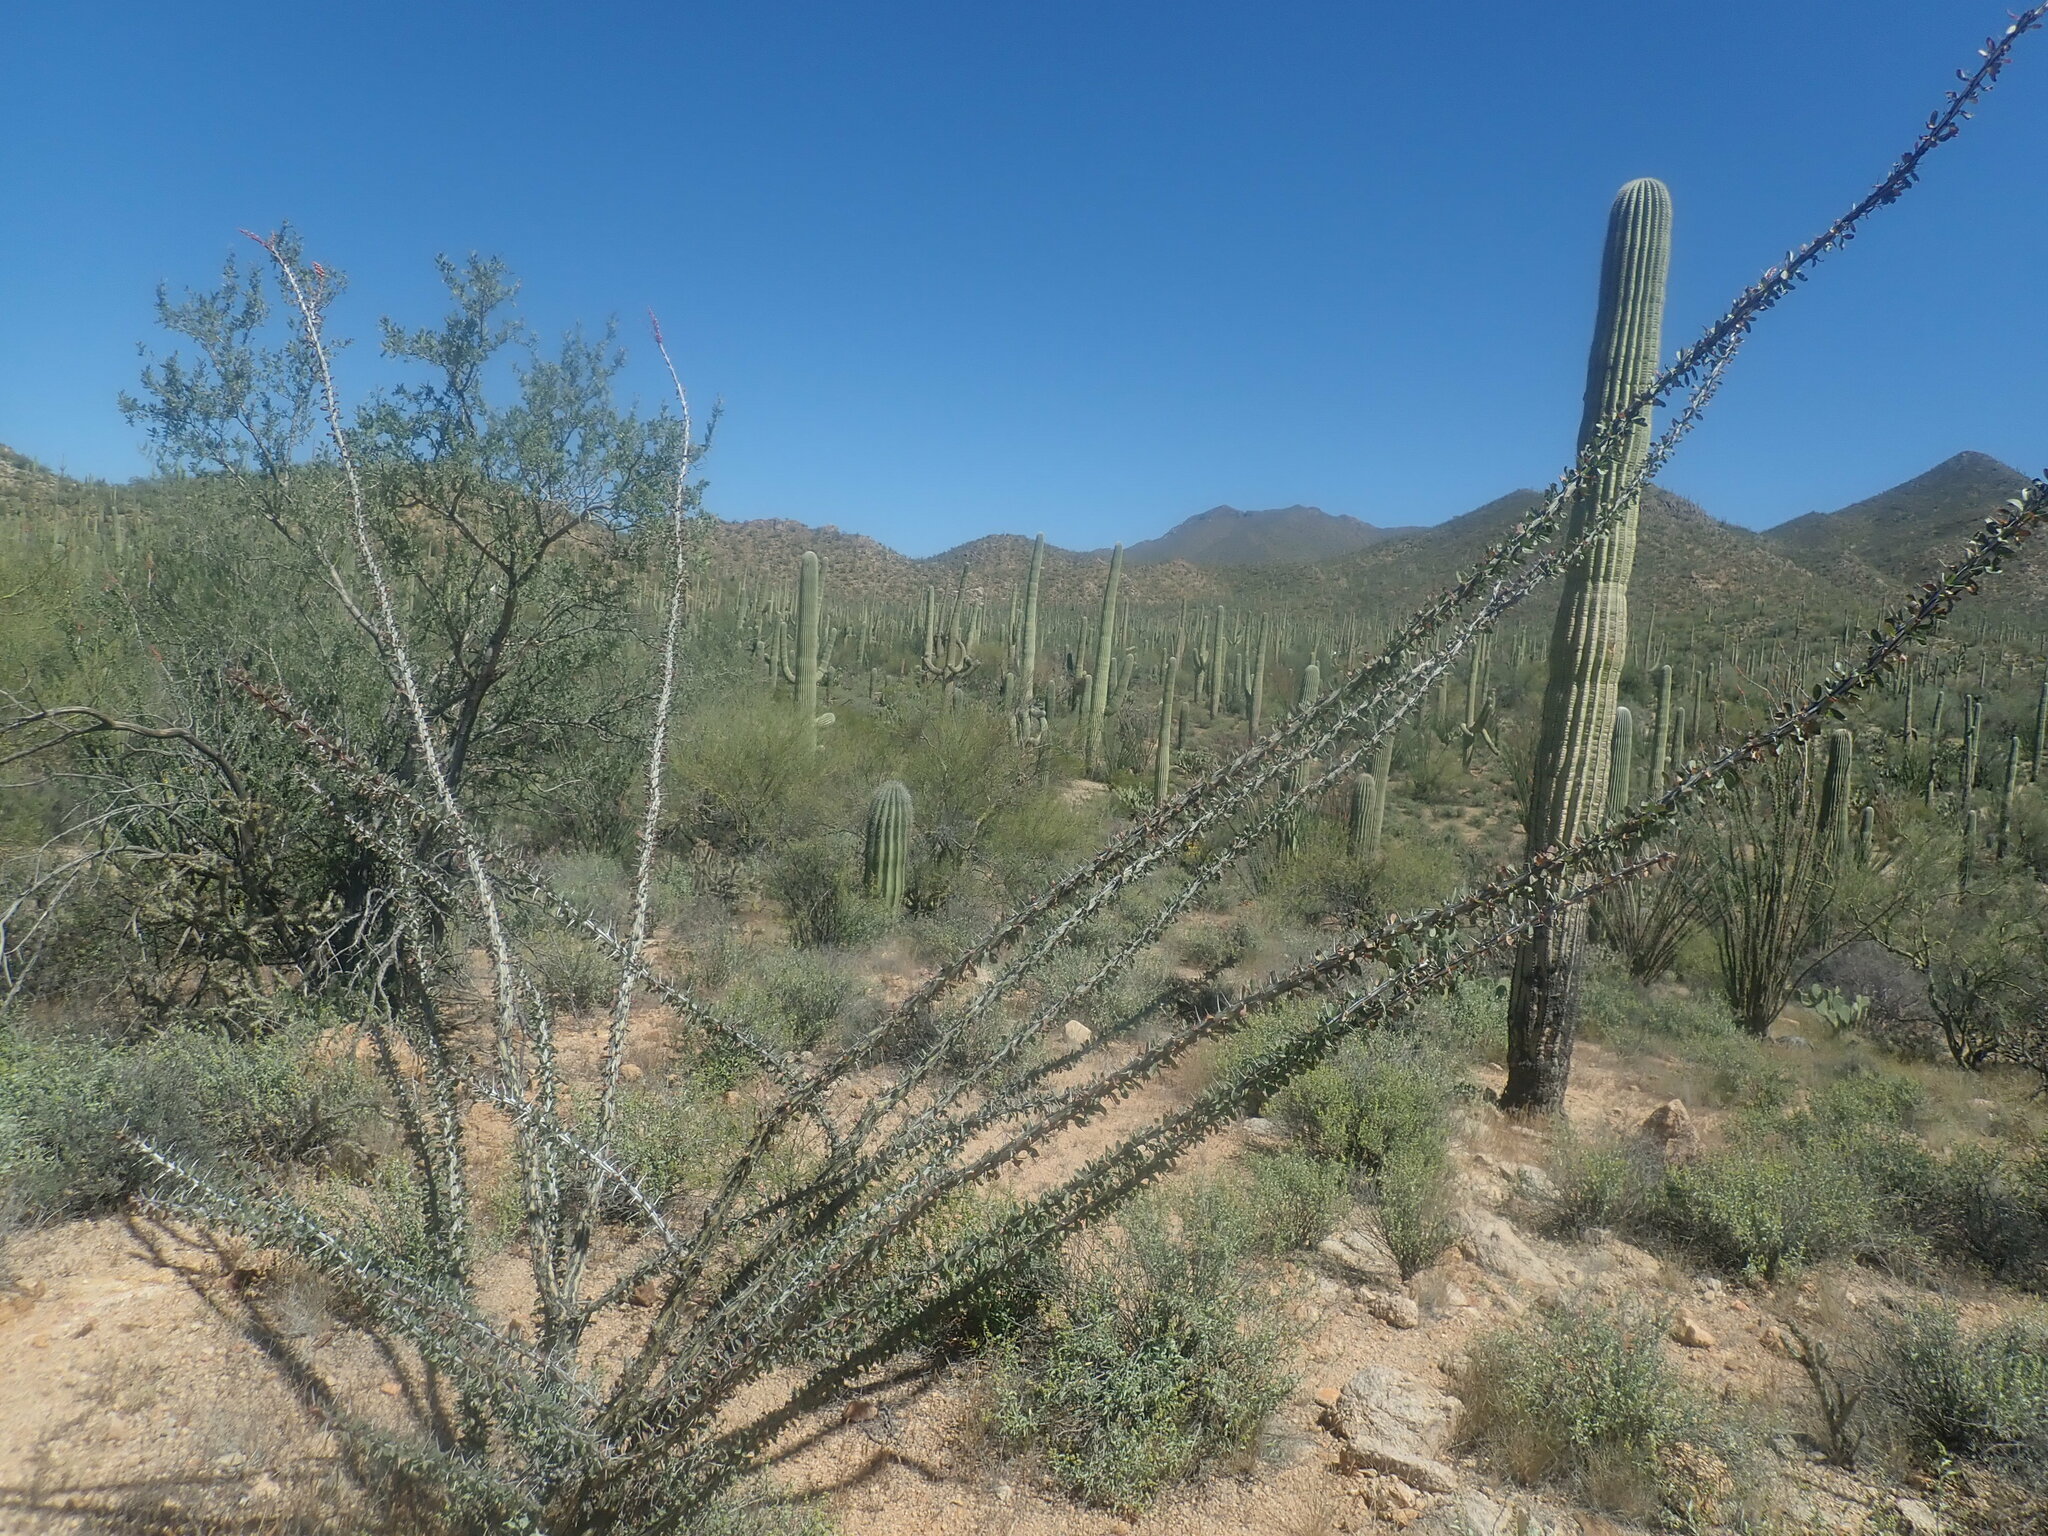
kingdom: Plantae
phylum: Tracheophyta
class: Magnoliopsida
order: Ericales
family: Fouquieriaceae
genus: Fouquieria
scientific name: Fouquieria splendens
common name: Vine-cactus
